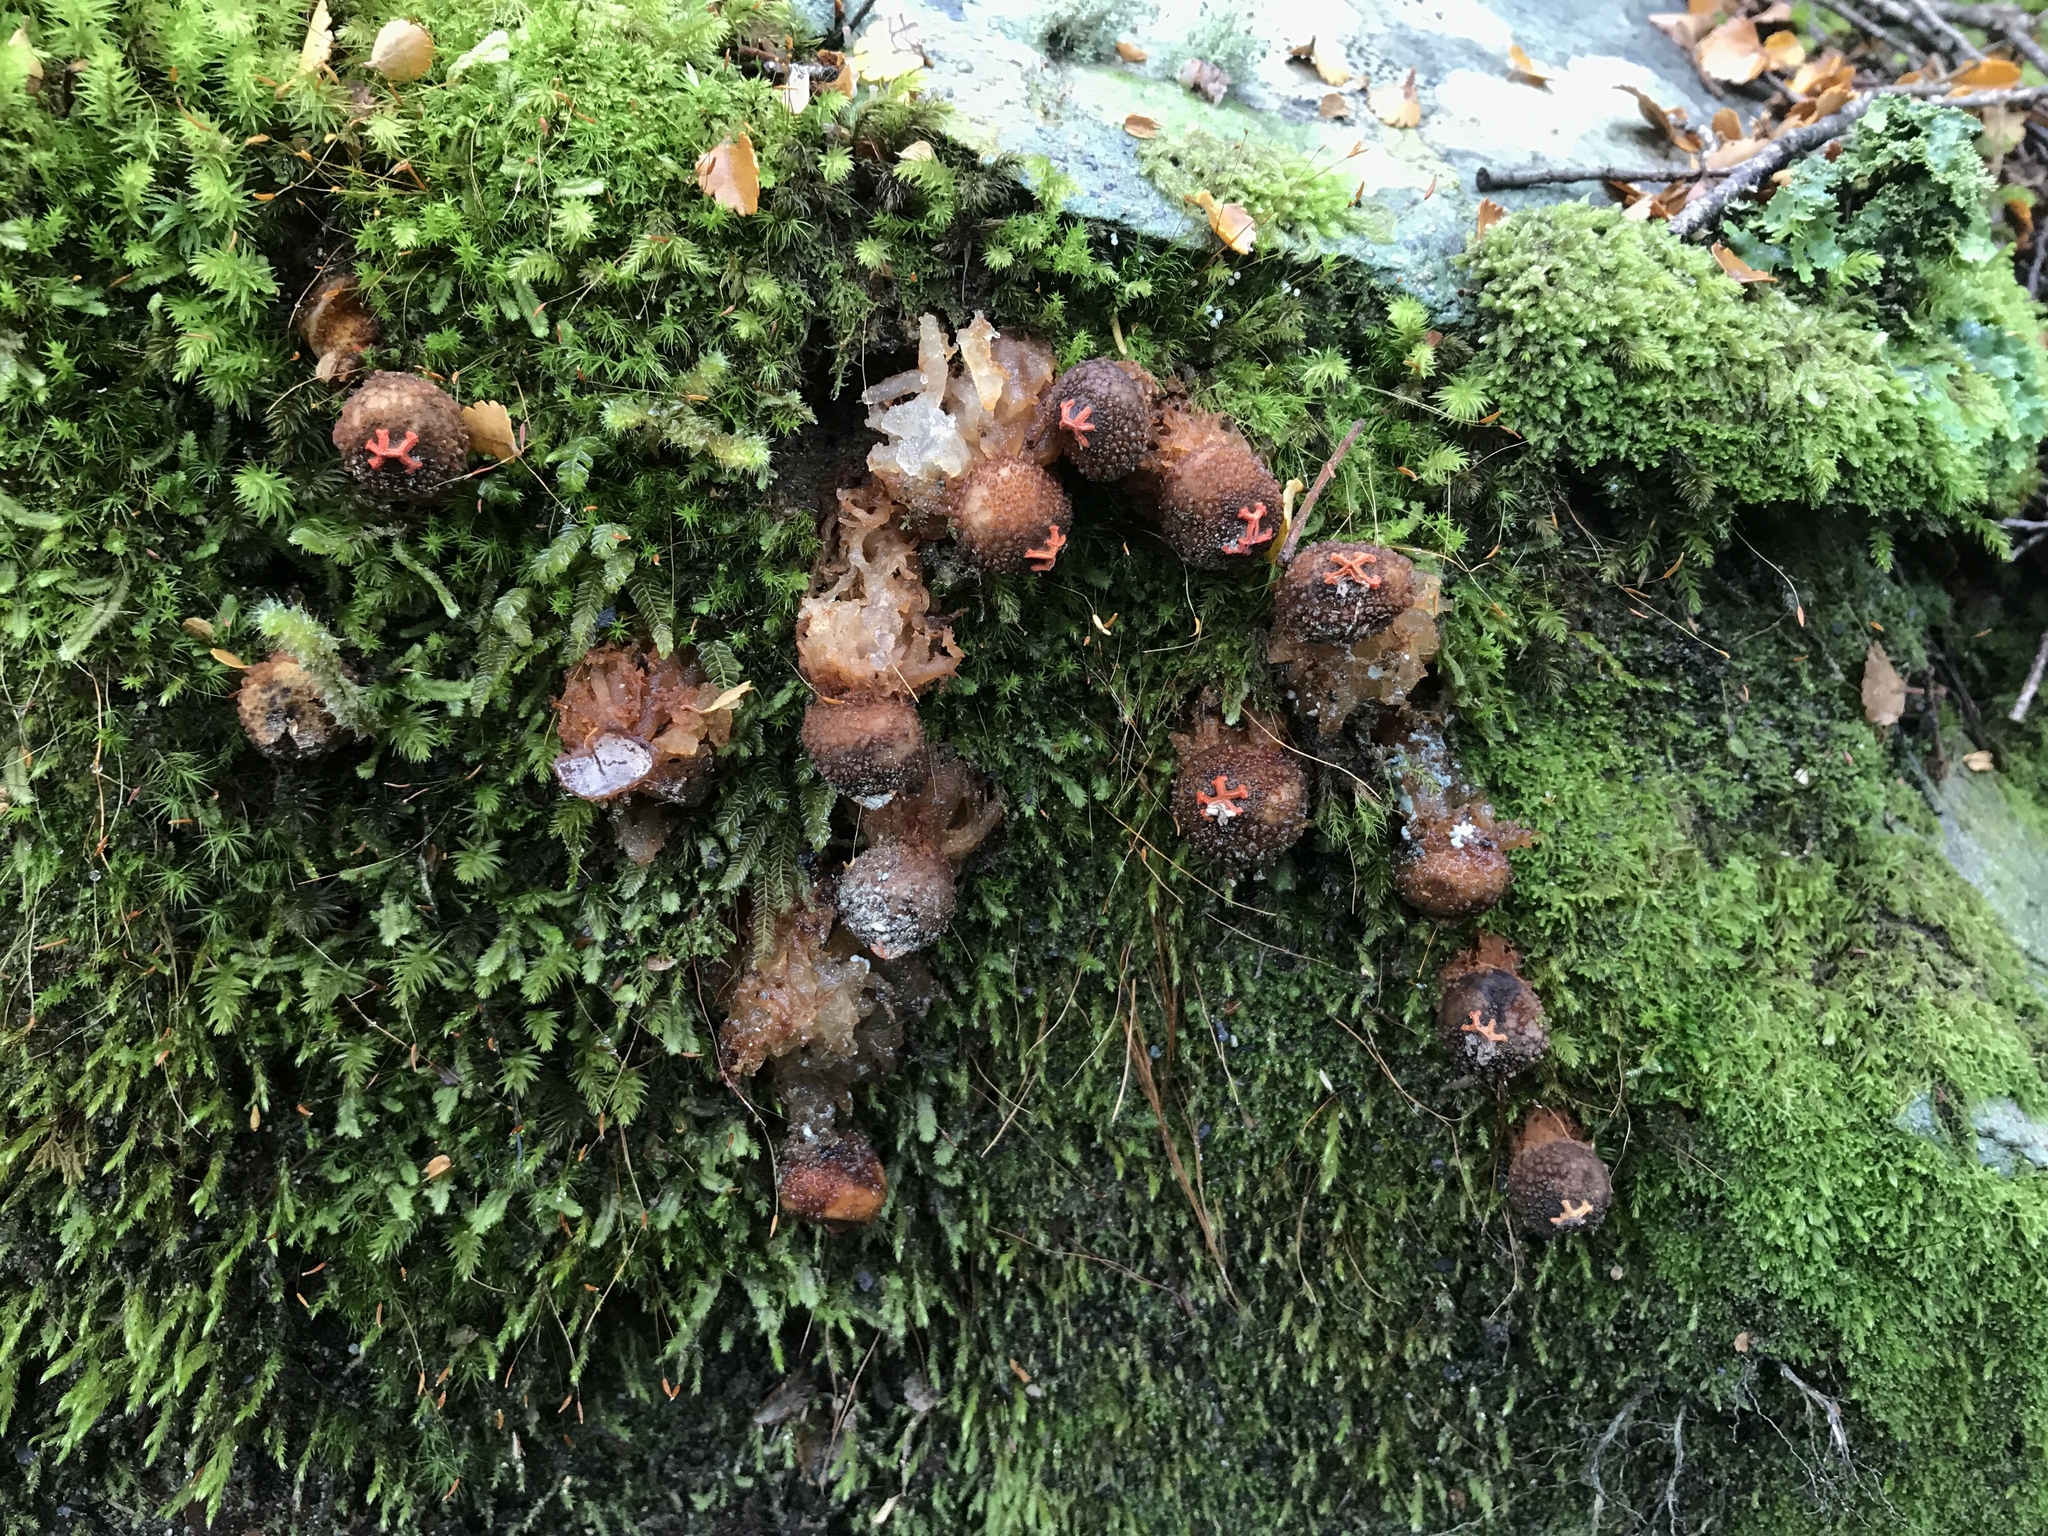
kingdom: Fungi
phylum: Basidiomycota
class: Agaricomycetes
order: Boletales
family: Calostomataceae
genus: Calostoma
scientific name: Calostoma rodwayi
